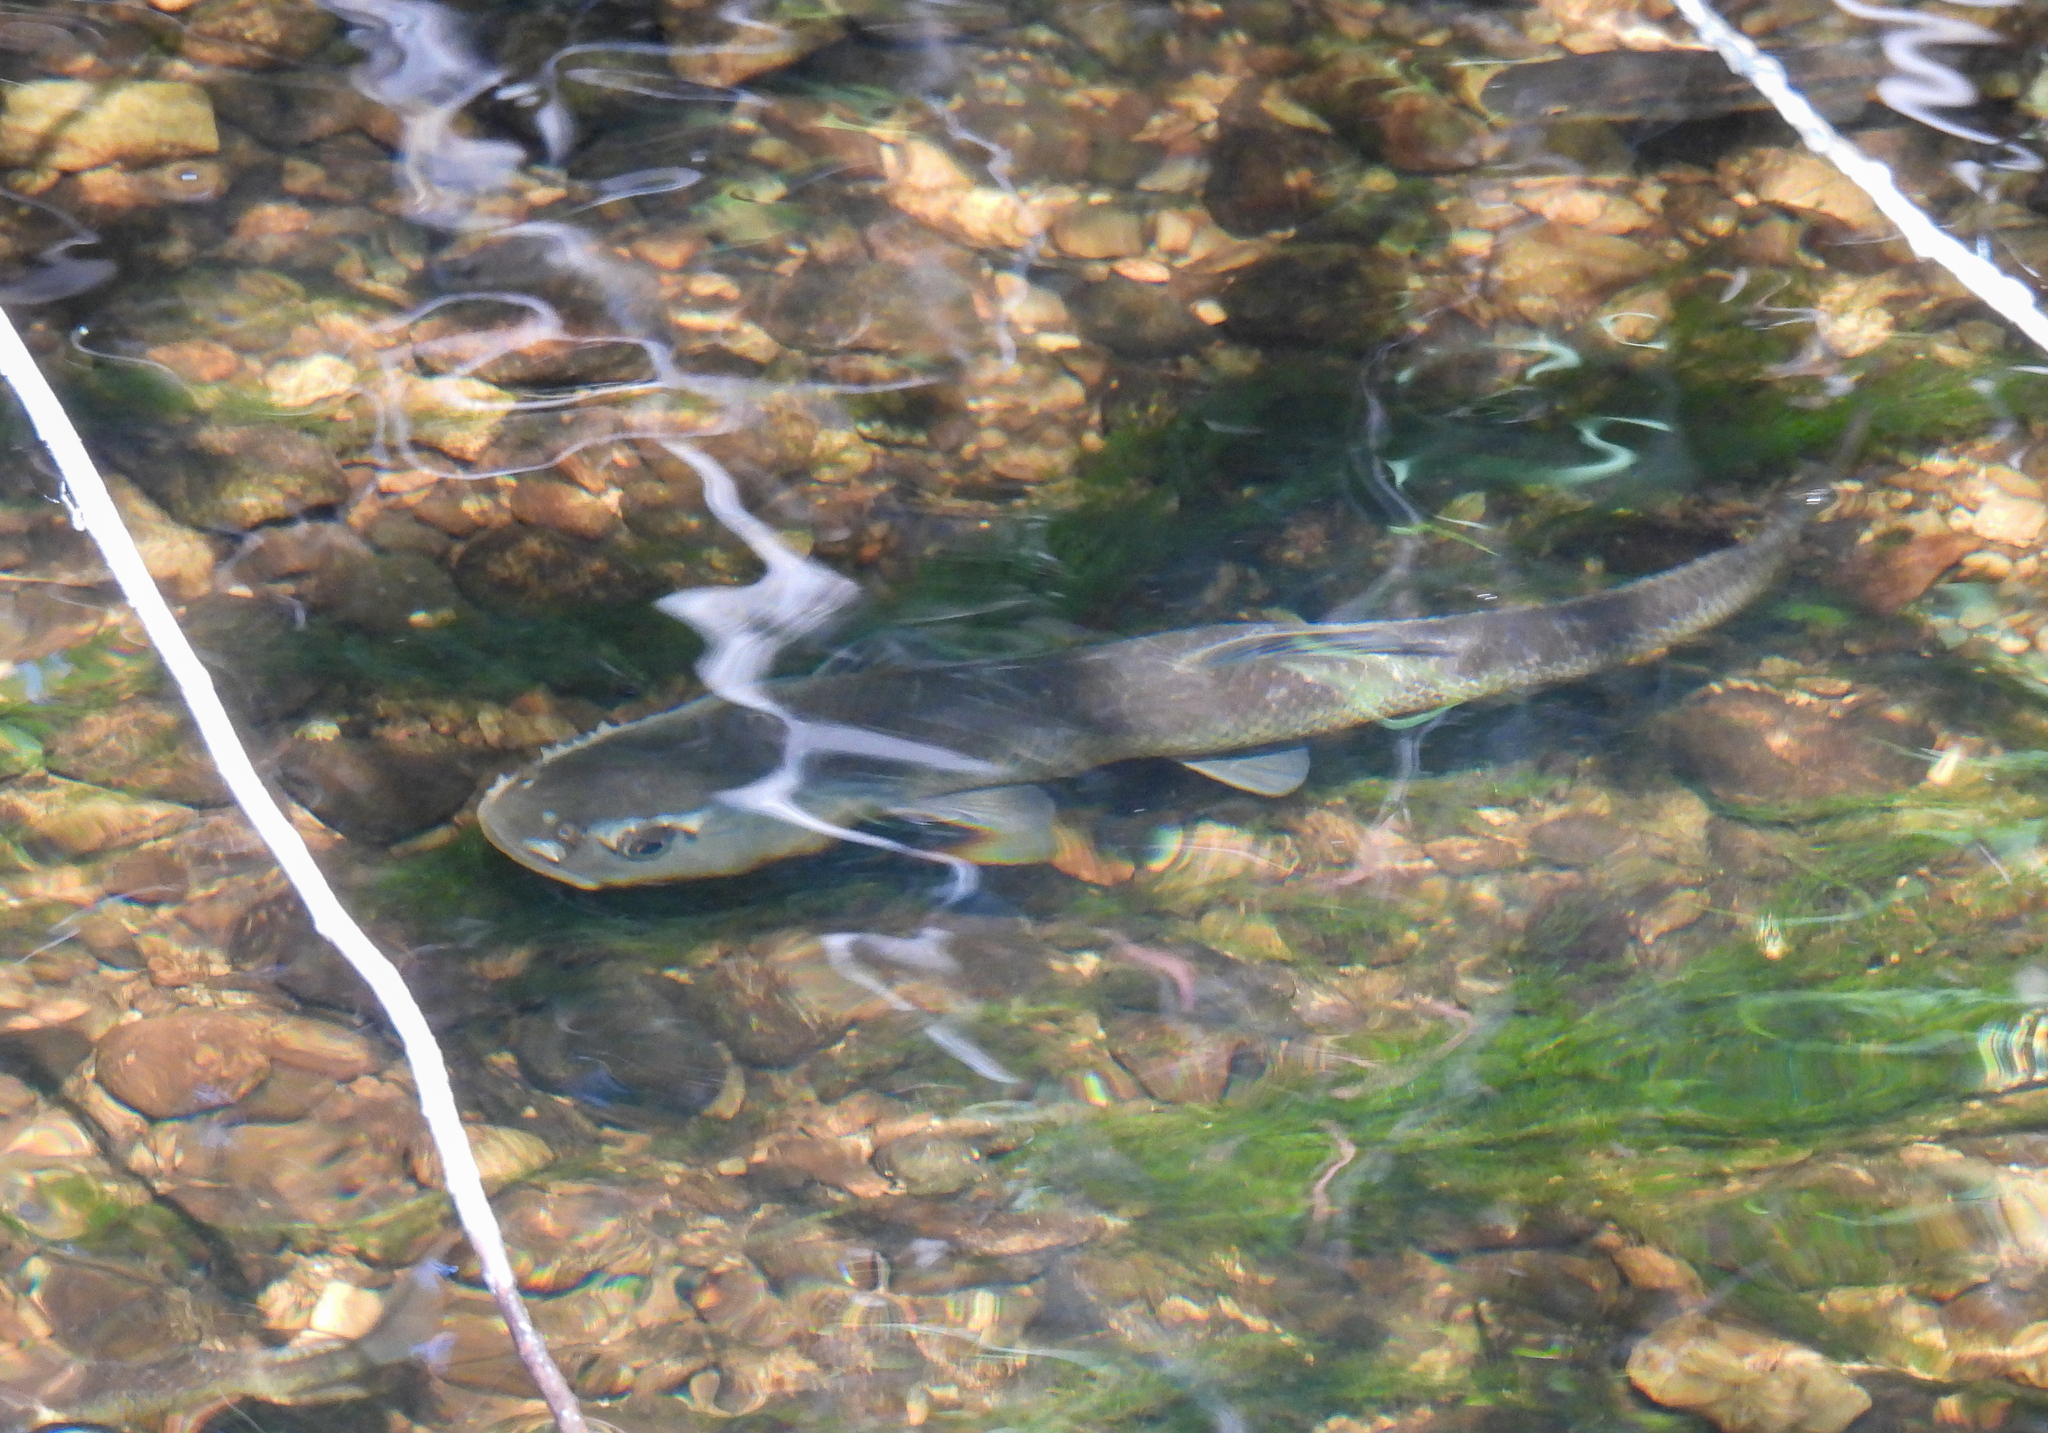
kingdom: Animalia
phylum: Chordata
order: Cypriniformes
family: Cyprinidae
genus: Semotilus
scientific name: Semotilus atromaculatus
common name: Creek chub
